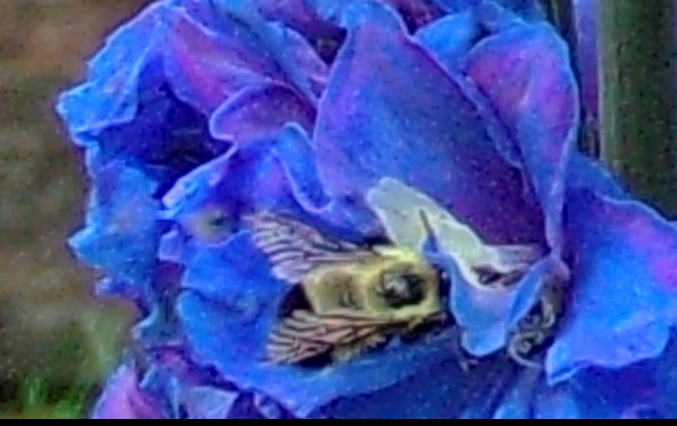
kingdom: Animalia
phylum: Arthropoda
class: Insecta
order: Hymenoptera
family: Apidae
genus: Pyrobombus
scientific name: Pyrobombus
